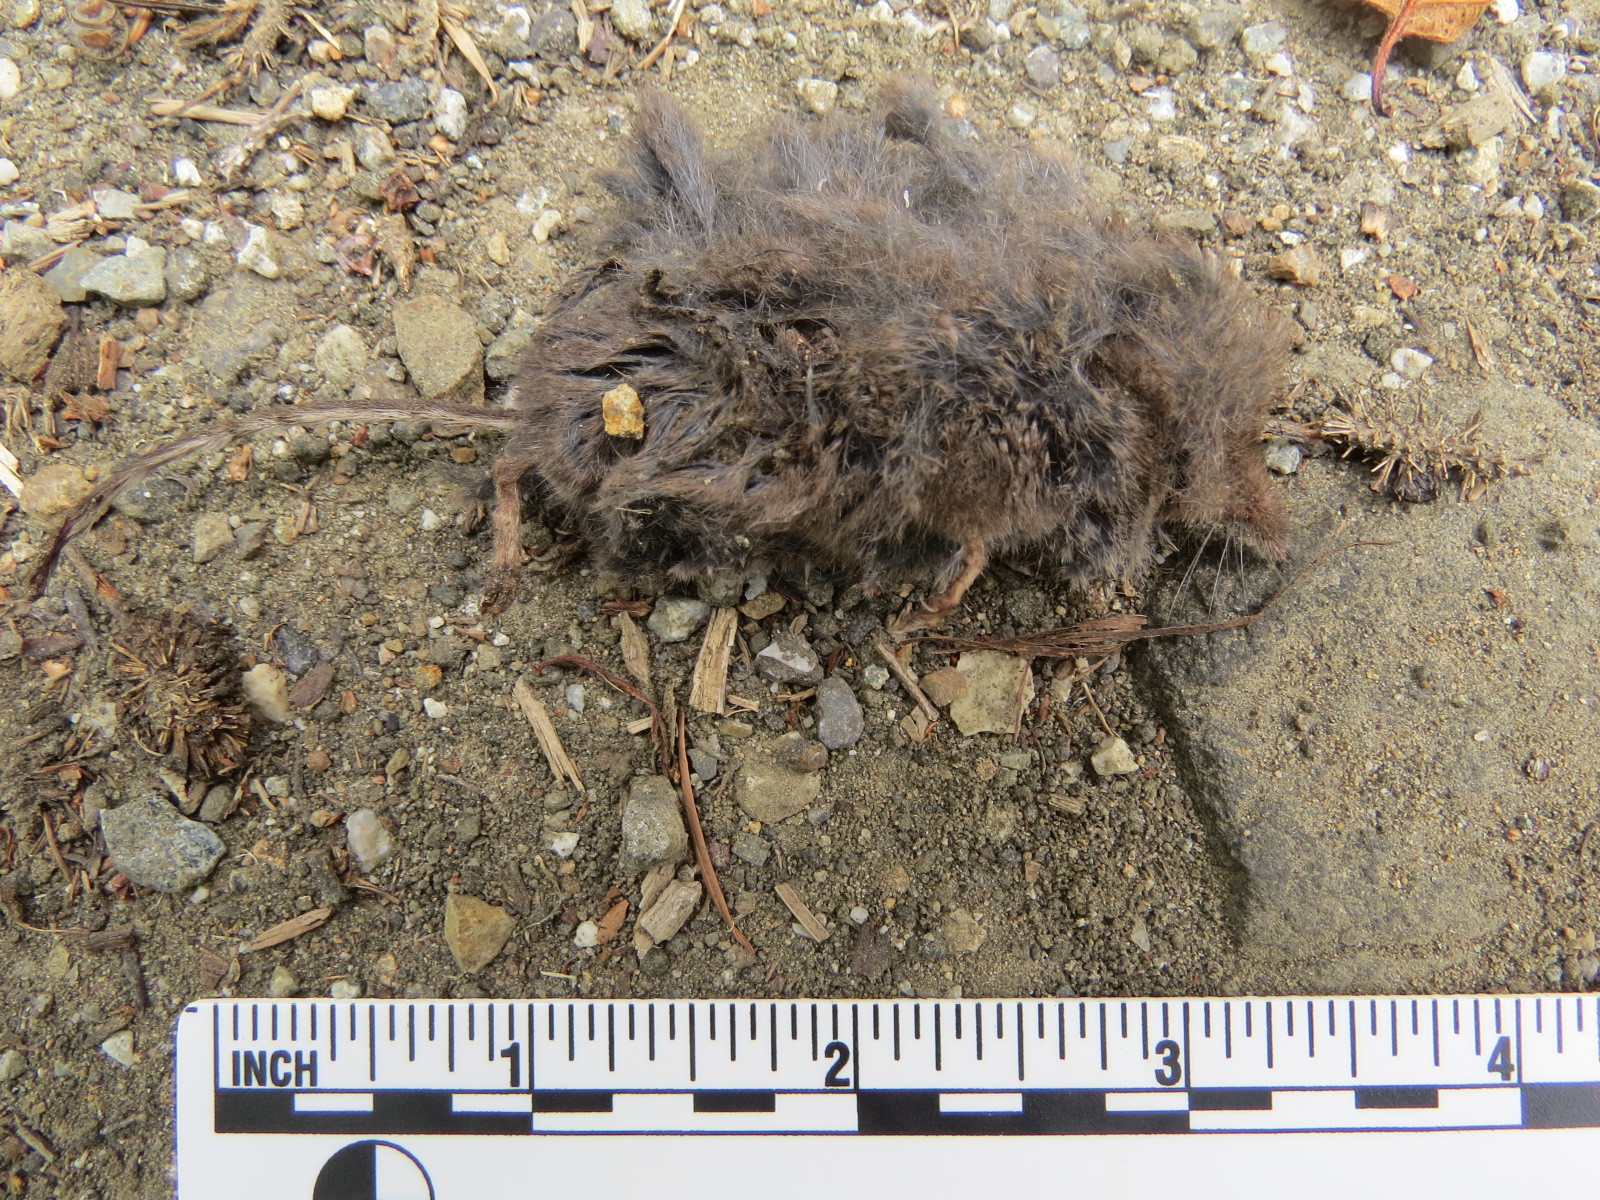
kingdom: Animalia
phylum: Chordata
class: Mammalia
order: Soricomorpha
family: Soricidae
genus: Sorex
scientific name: Sorex ornatus
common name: Ornate shrew
